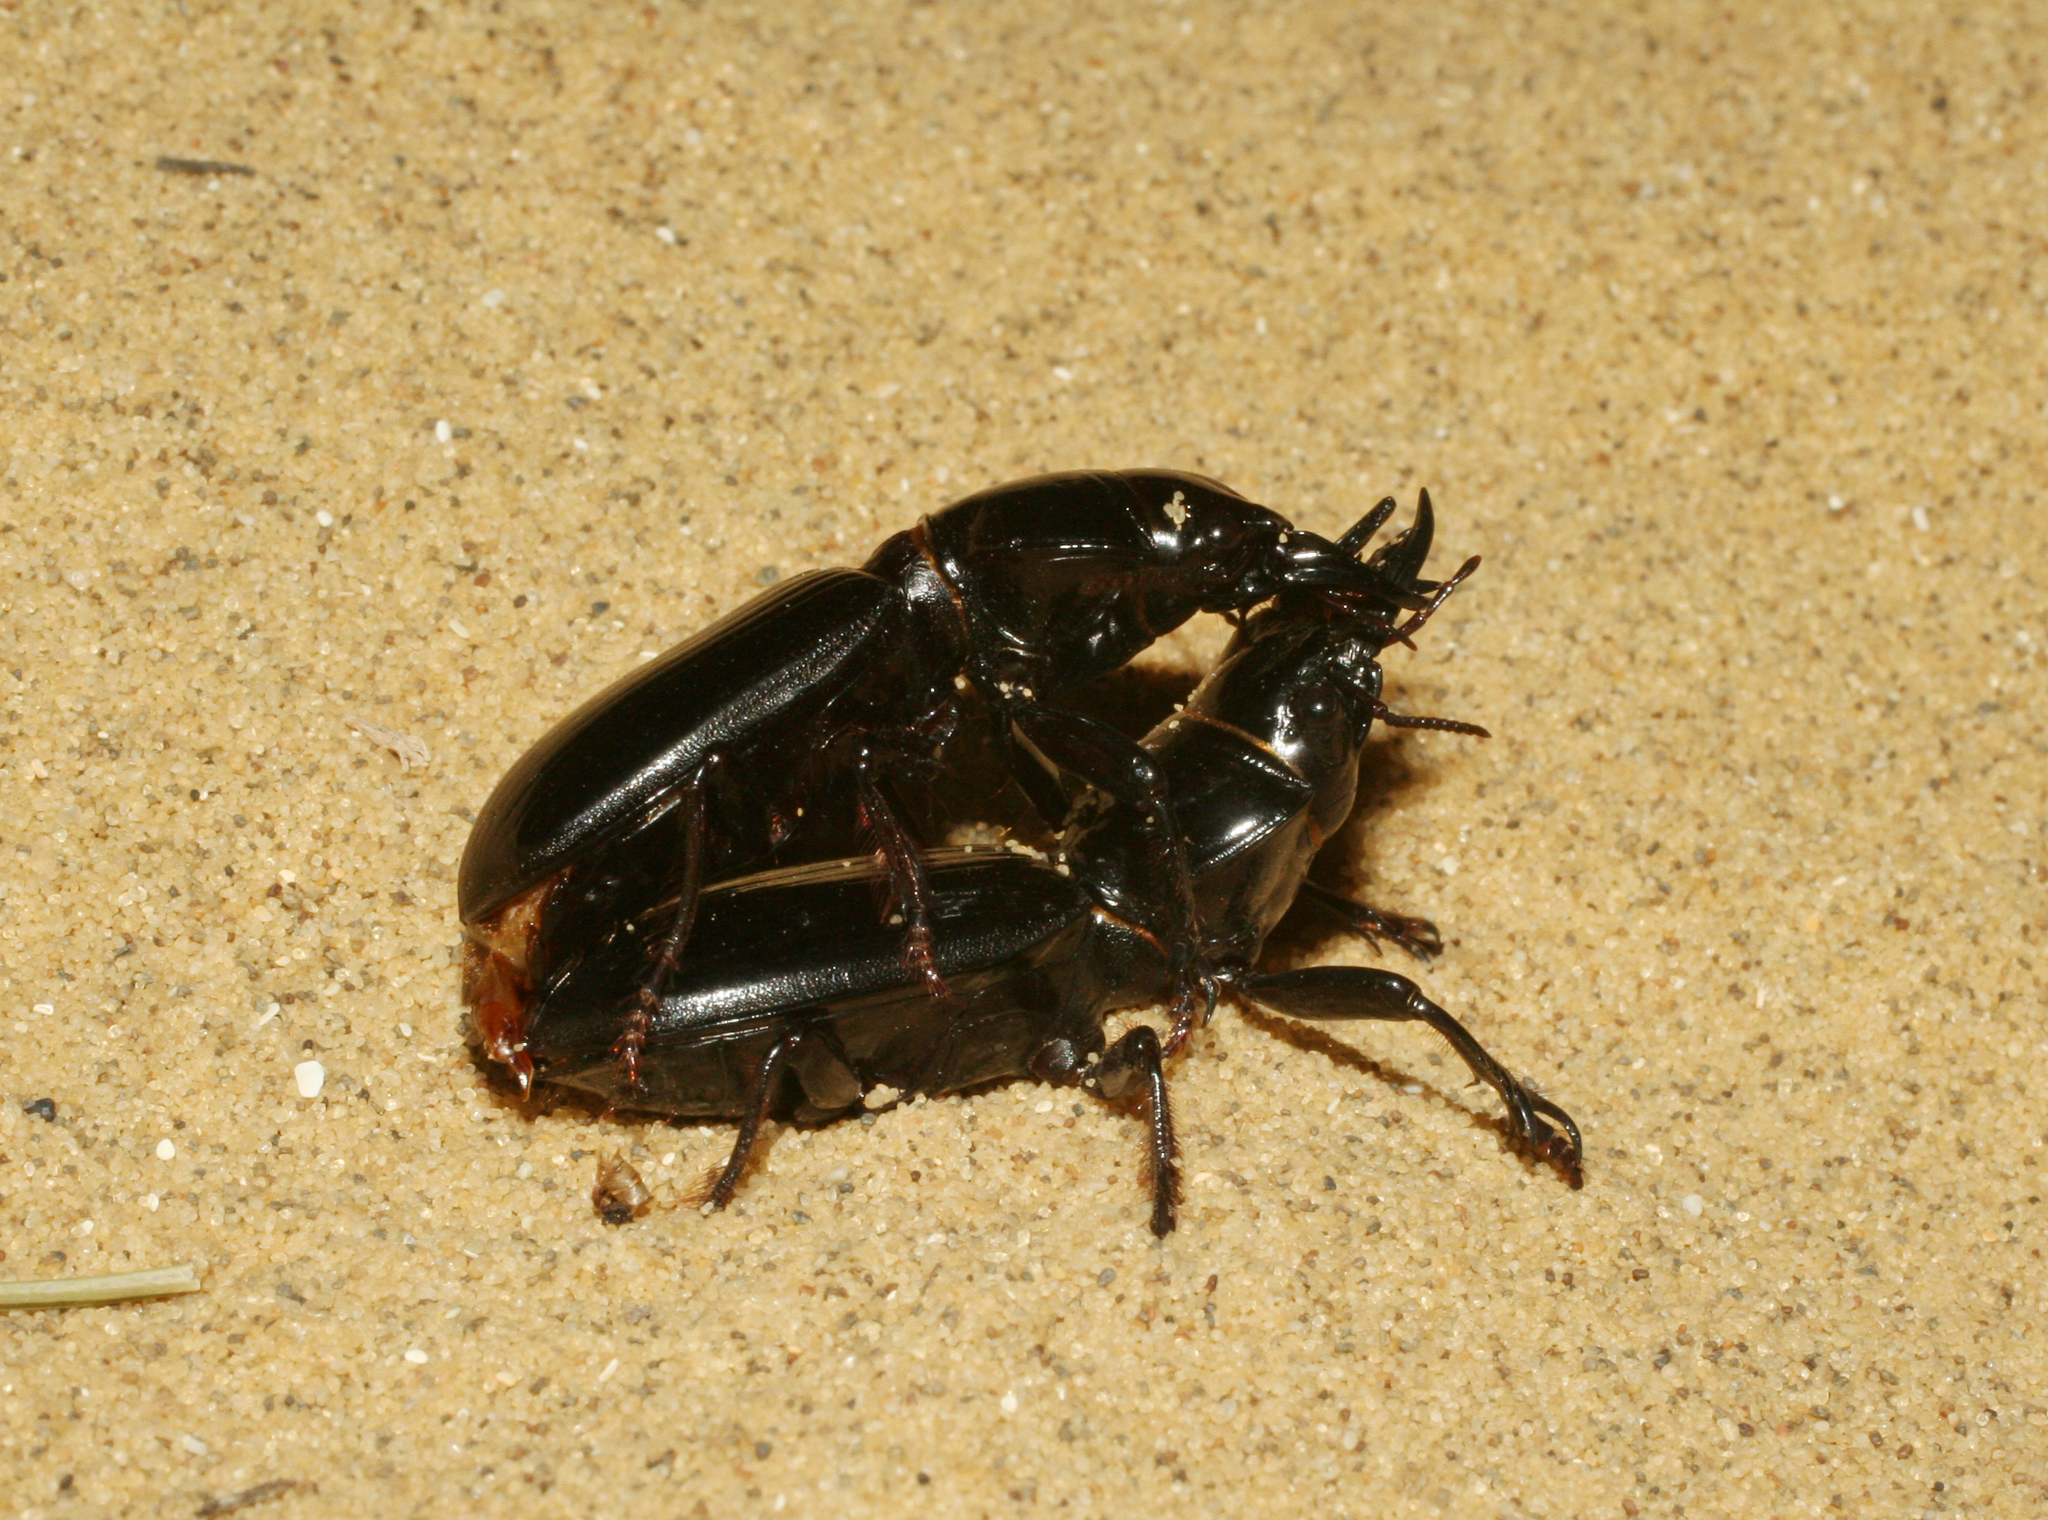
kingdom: Animalia
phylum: Arthropoda
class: Insecta
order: Coleoptera
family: Carabidae
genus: Scarites
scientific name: Scarites bucida
